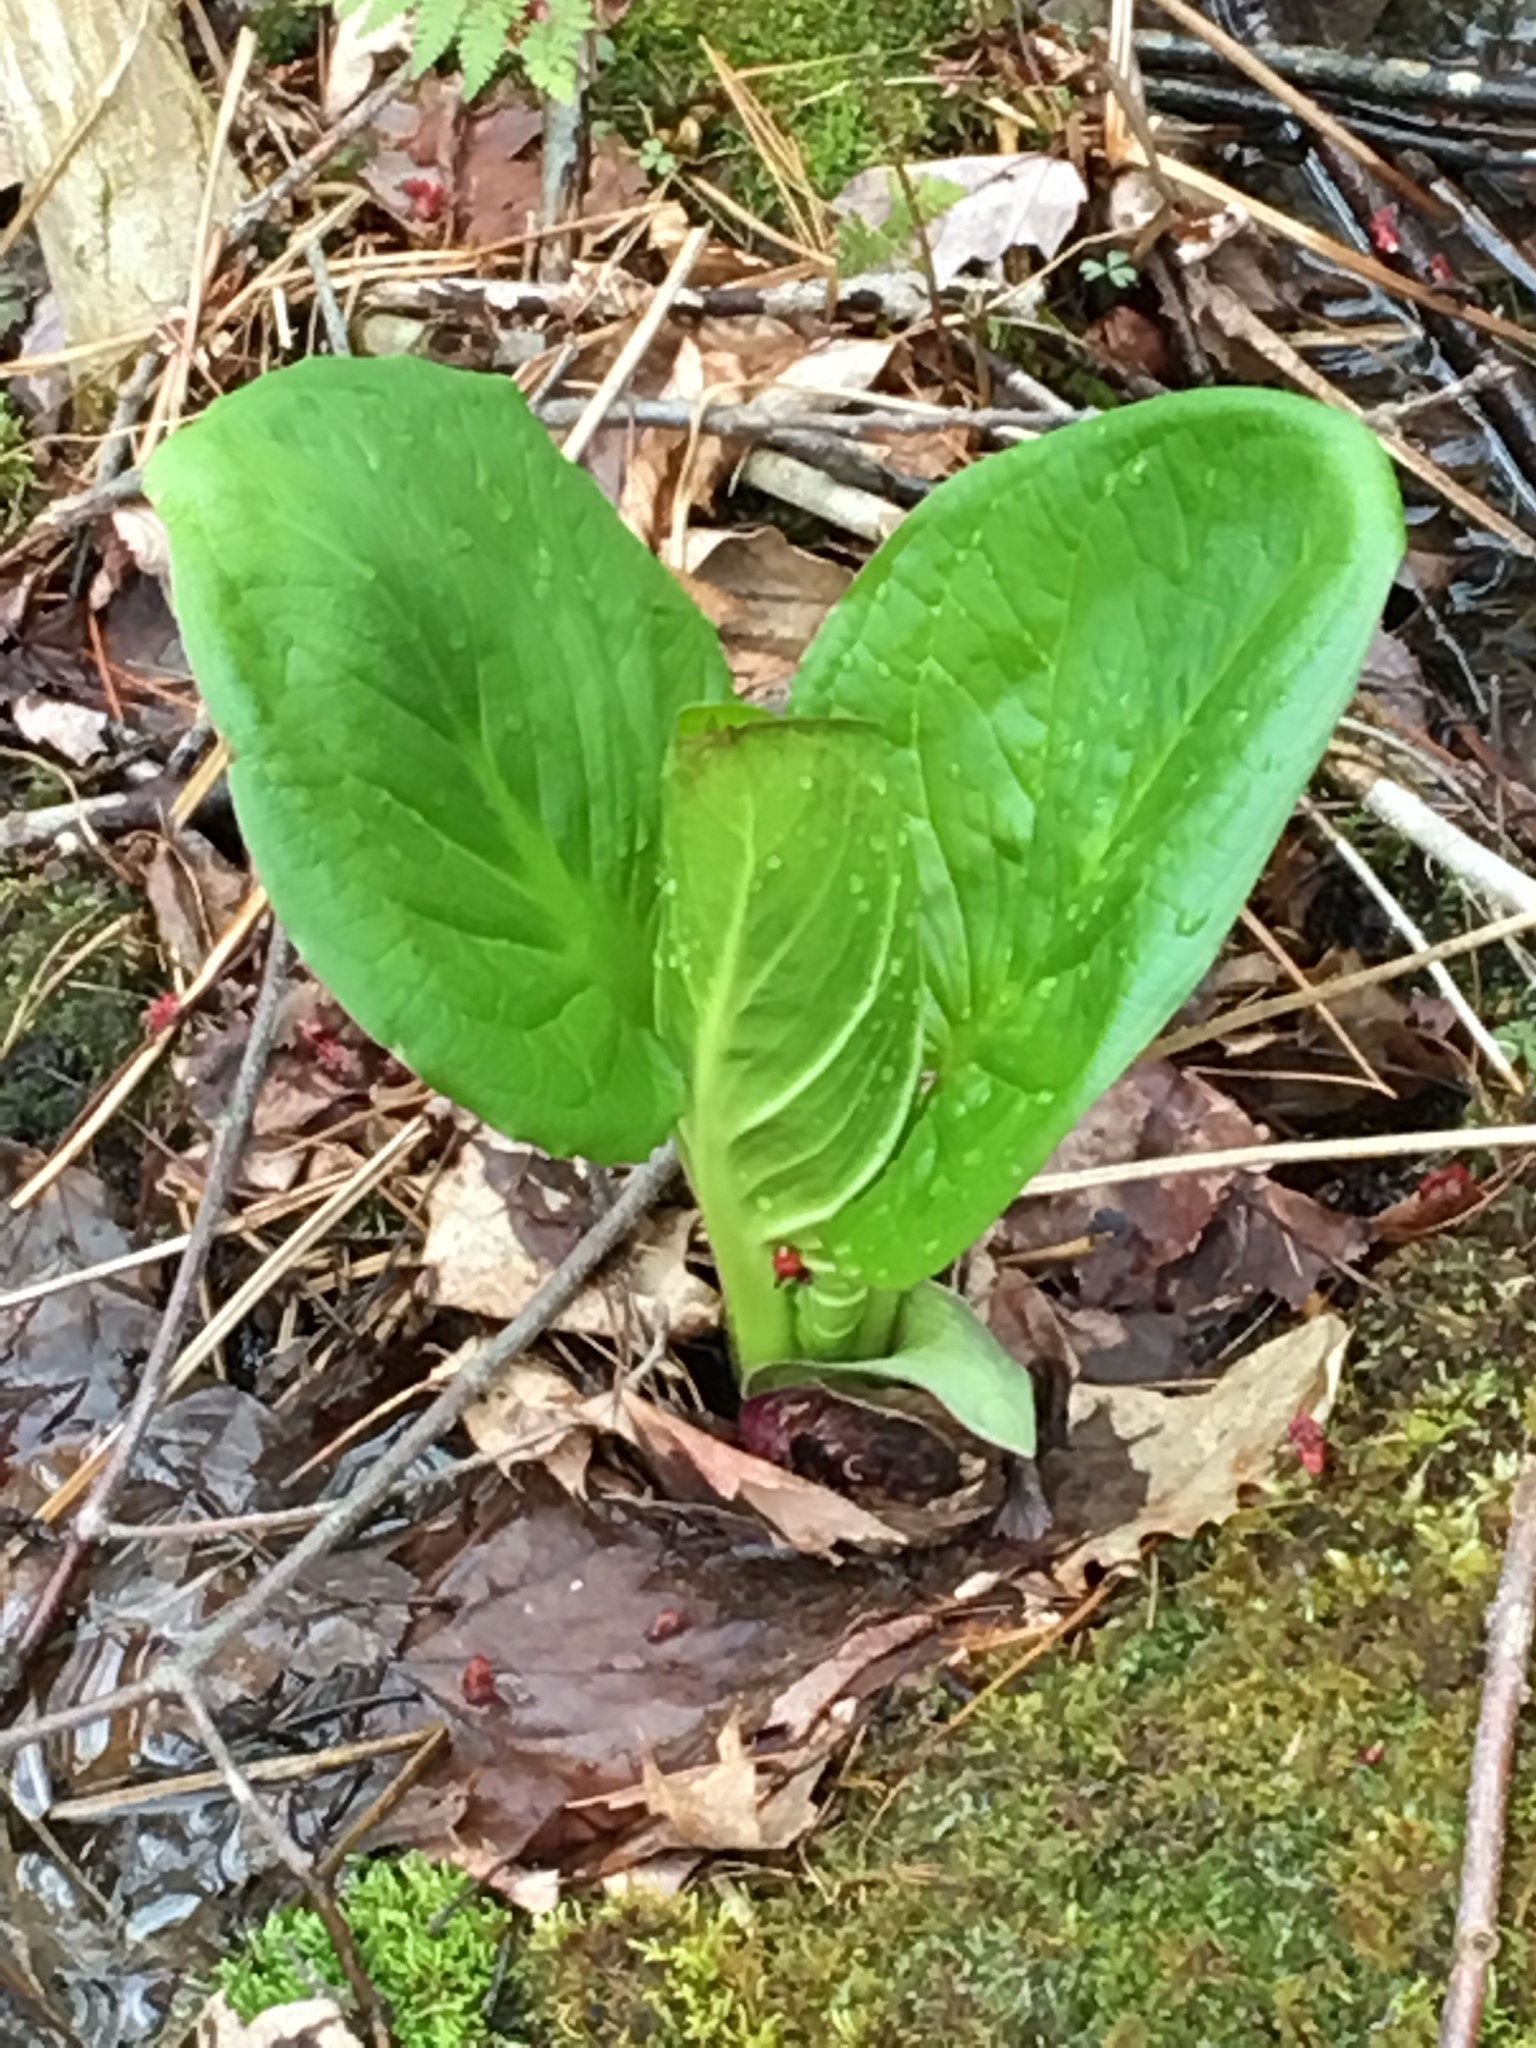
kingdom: Plantae
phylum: Tracheophyta
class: Liliopsida
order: Alismatales
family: Araceae
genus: Symplocarpus
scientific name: Symplocarpus foetidus
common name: Eastern skunk cabbage
